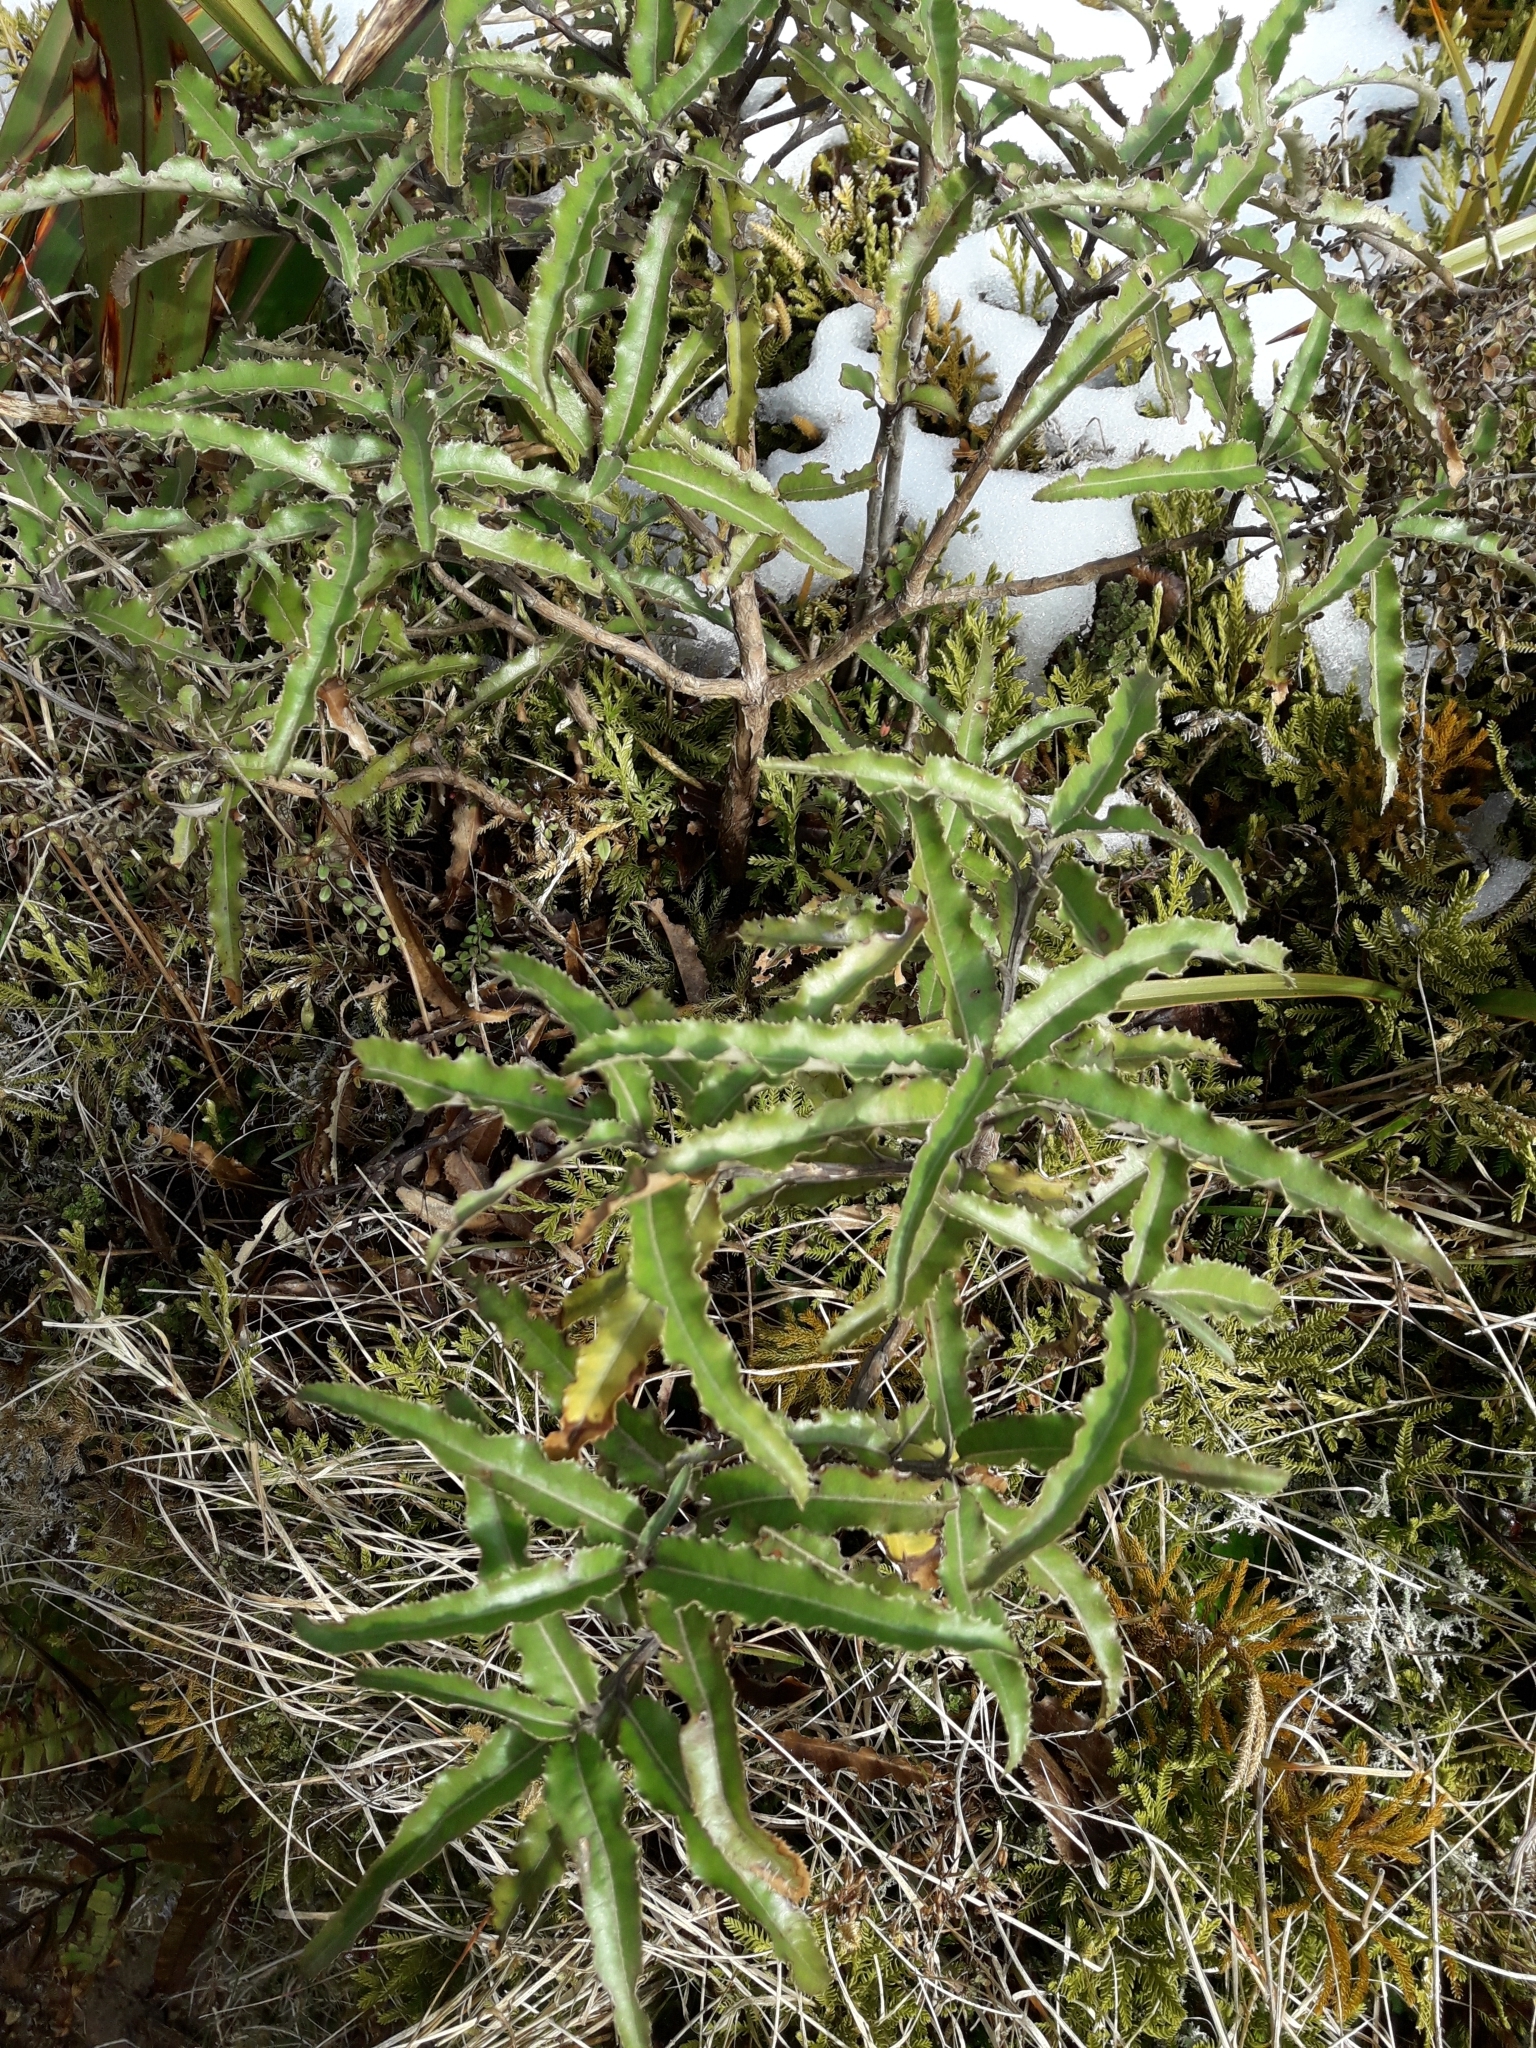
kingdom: Plantae
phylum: Tracheophyta
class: Magnoliopsida
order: Asterales
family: Asteraceae
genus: Olearia
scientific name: Olearia ilicifolia
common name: Maori-holly
